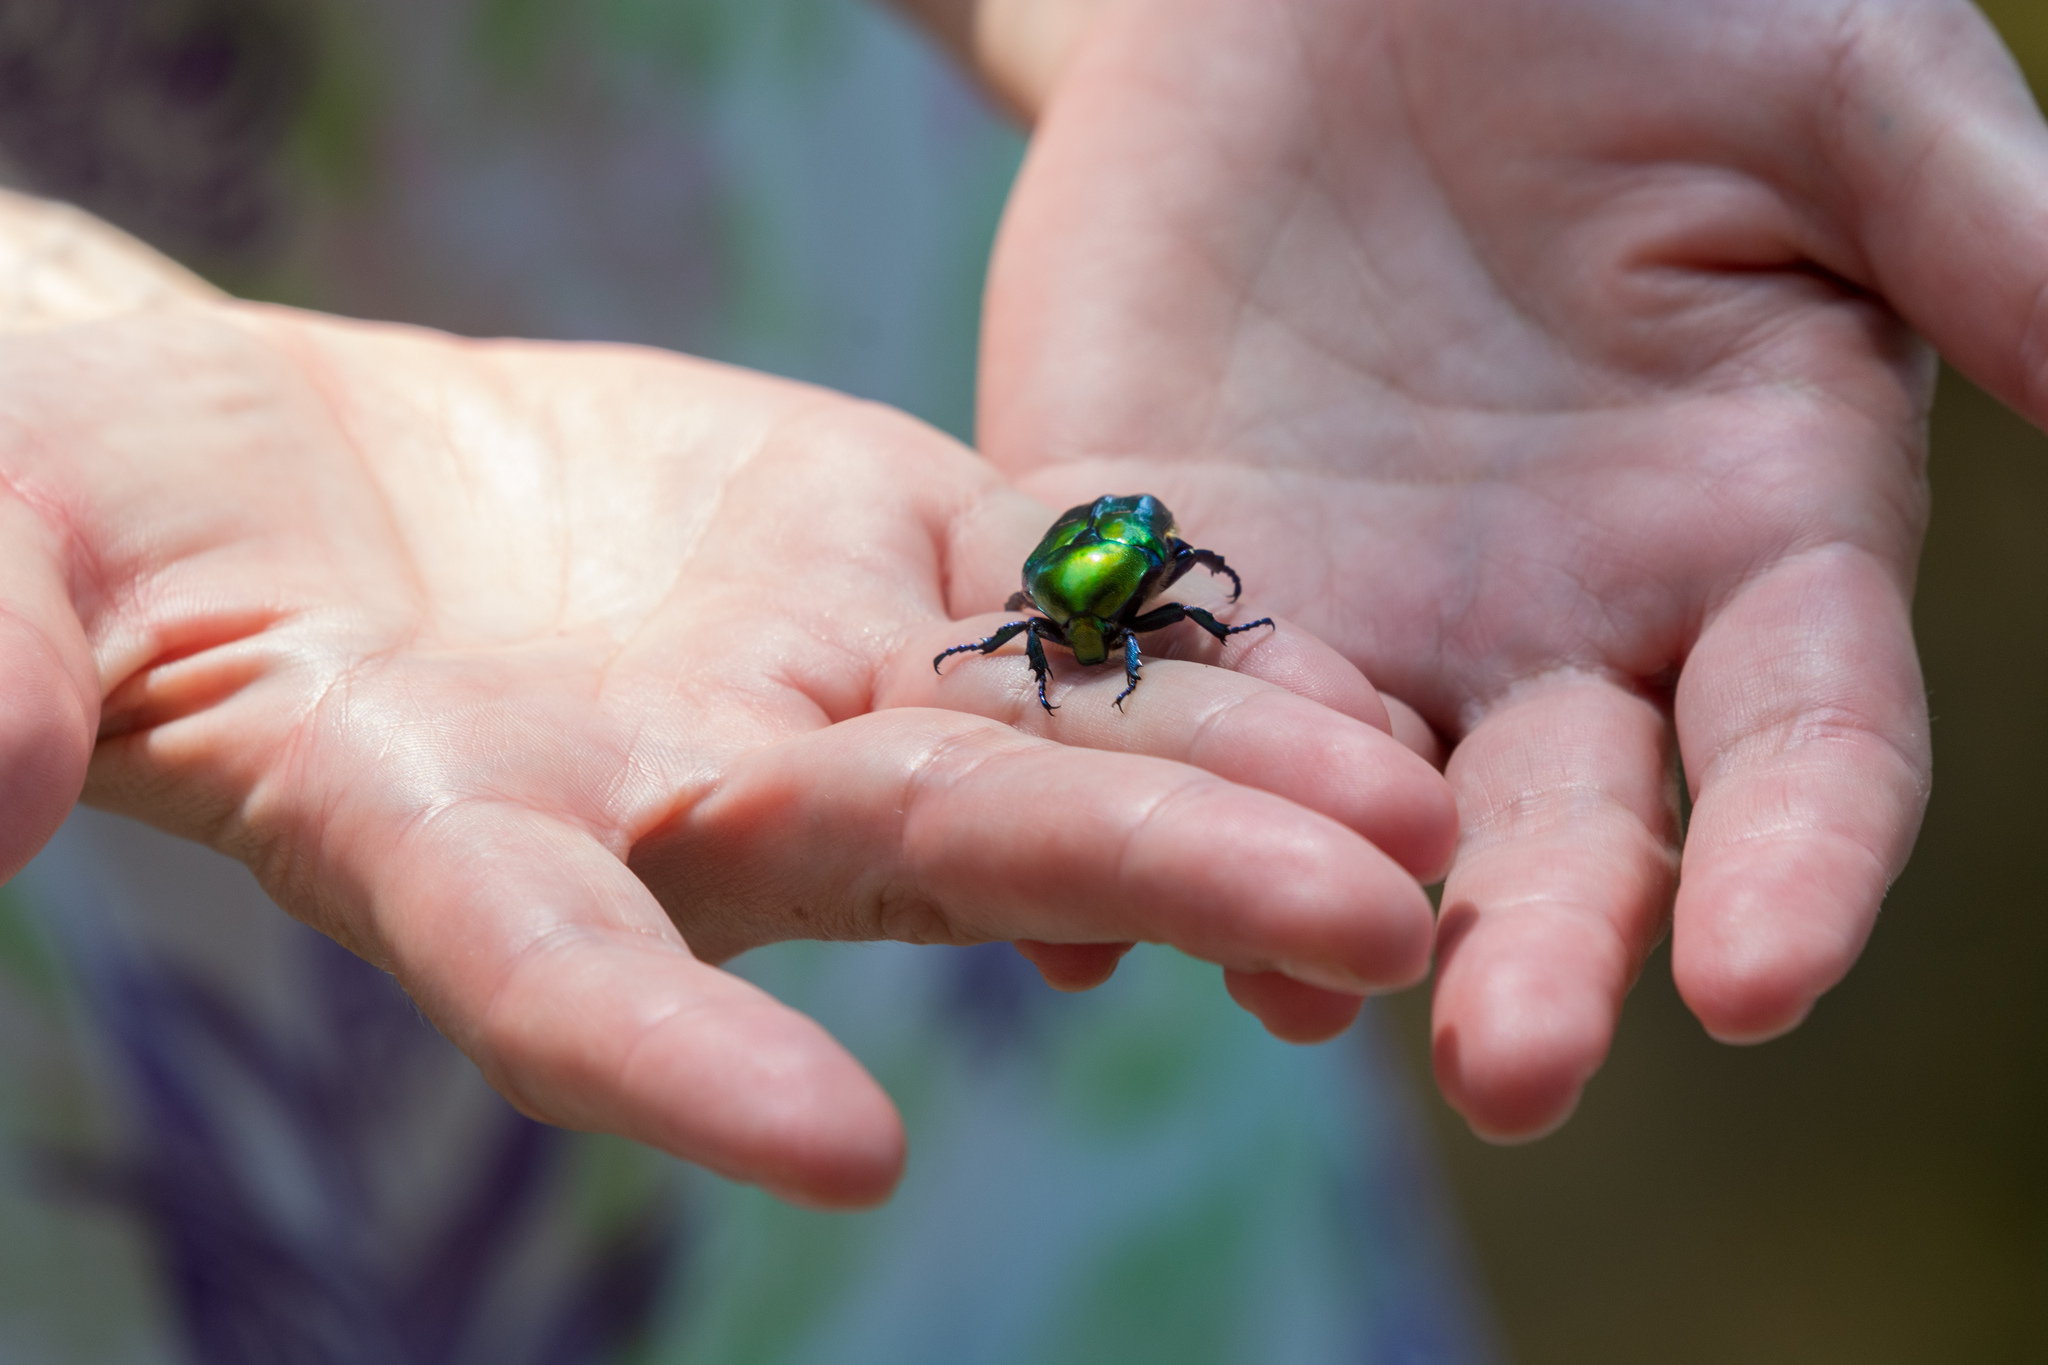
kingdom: Animalia
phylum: Arthropoda
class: Insecta
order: Coleoptera
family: Scarabaeidae
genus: Protaetia
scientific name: Protaetia affinis
